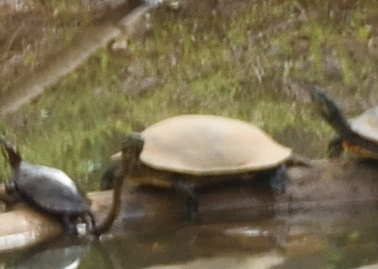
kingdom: Animalia
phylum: Chordata
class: Testudines
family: Emydidae
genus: Pseudemys
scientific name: Pseudemys concinna
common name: Eastern river cooter
